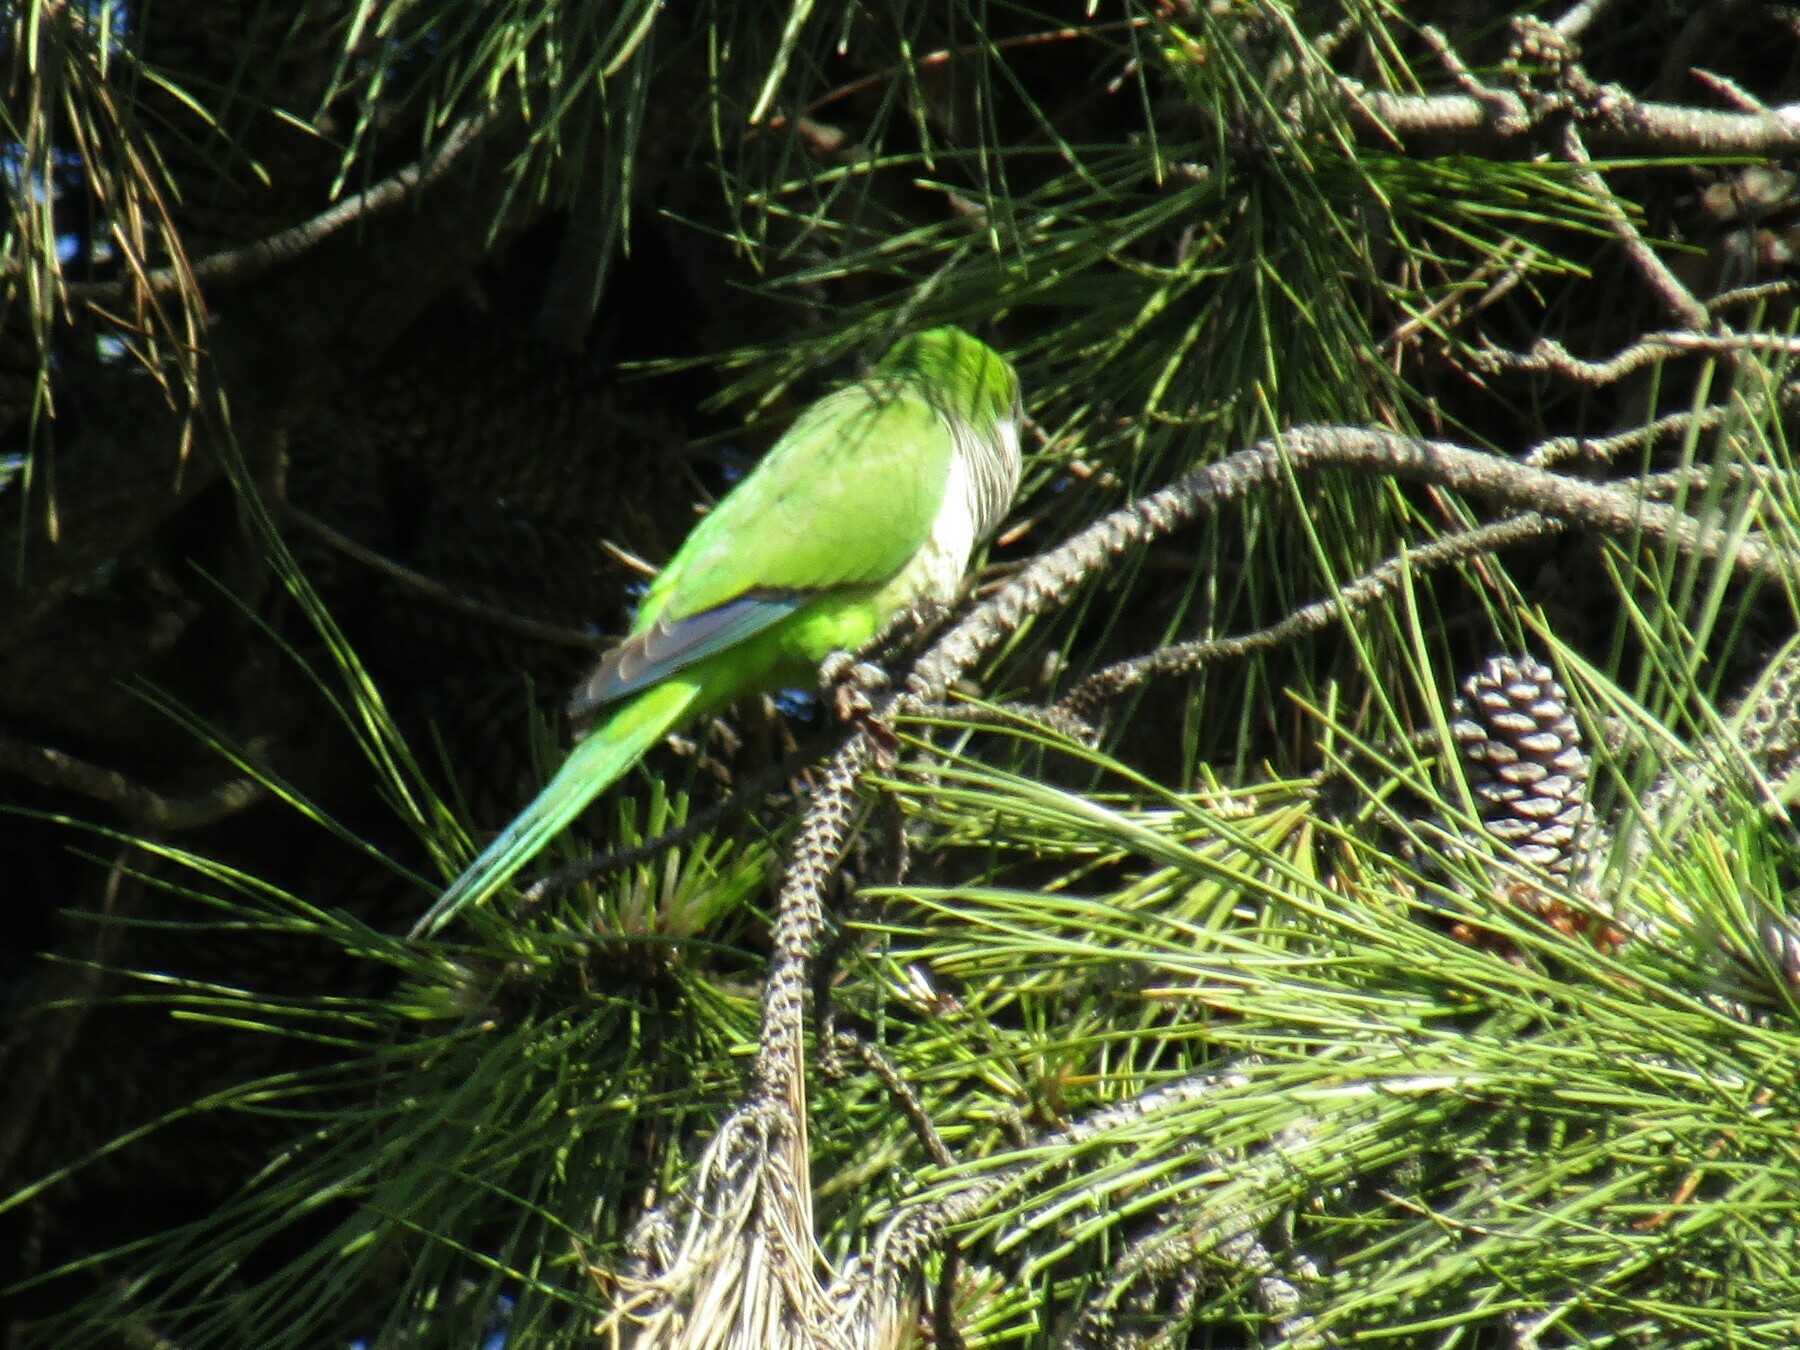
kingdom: Animalia
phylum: Chordata
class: Aves
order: Psittaciformes
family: Psittacidae
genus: Myiopsitta
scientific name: Myiopsitta monachus
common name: Monk parakeet
